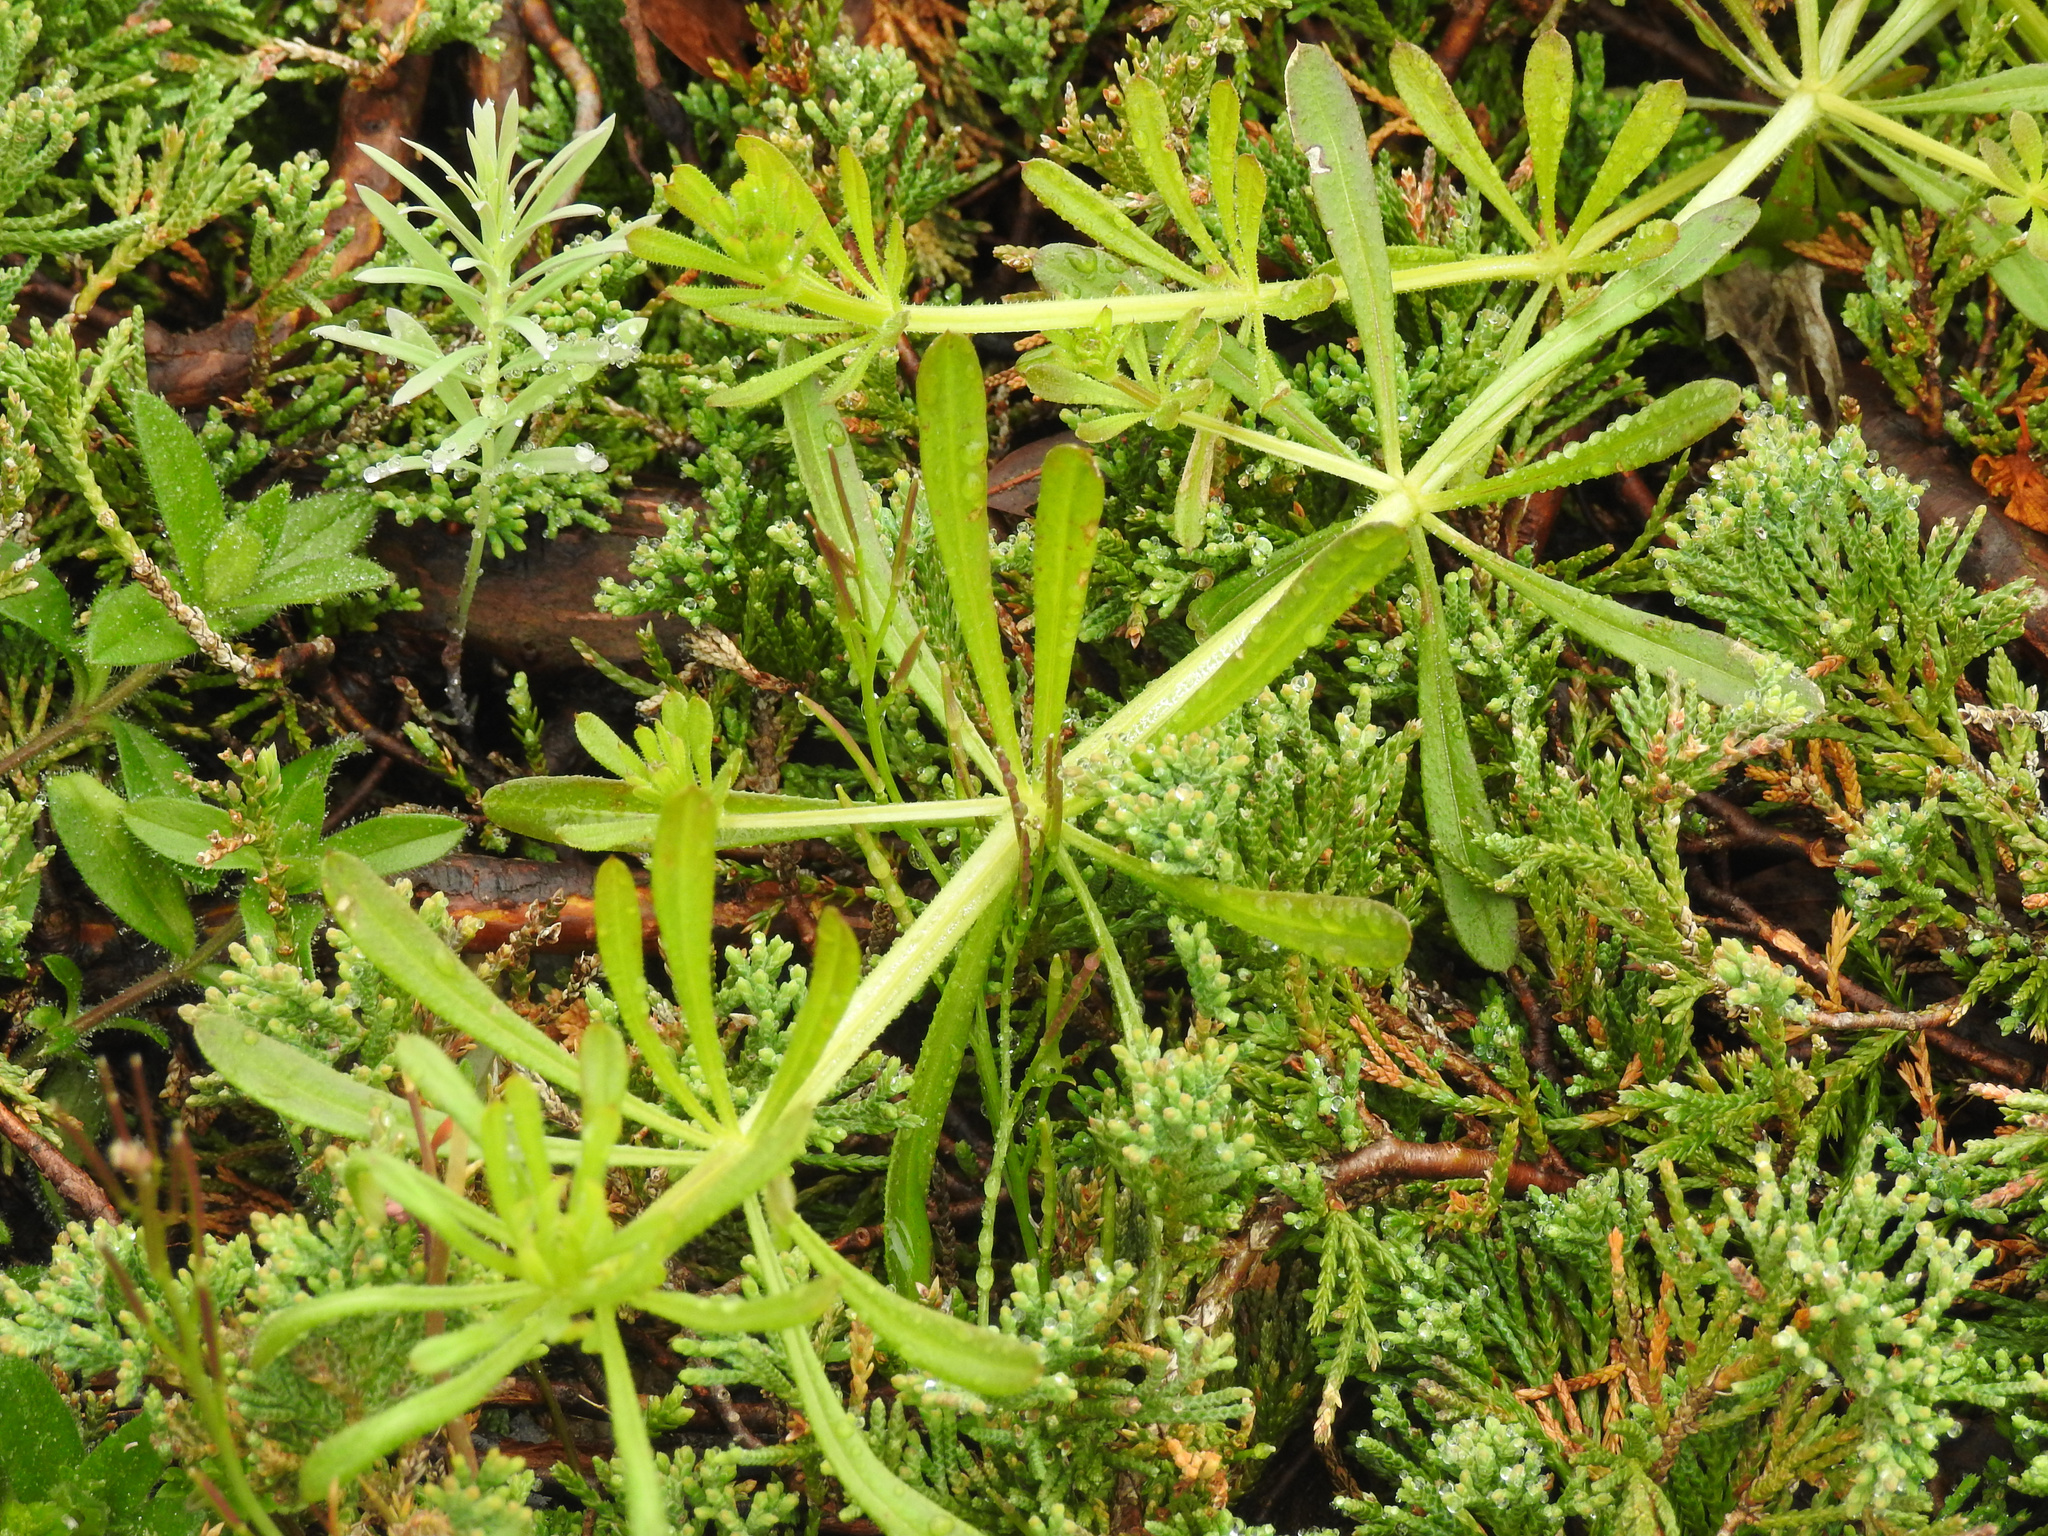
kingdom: Plantae
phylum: Tracheophyta
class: Magnoliopsida
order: Gentianales
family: Rubiaceae
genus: Galium
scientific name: Galium aparine
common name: Cleavers
